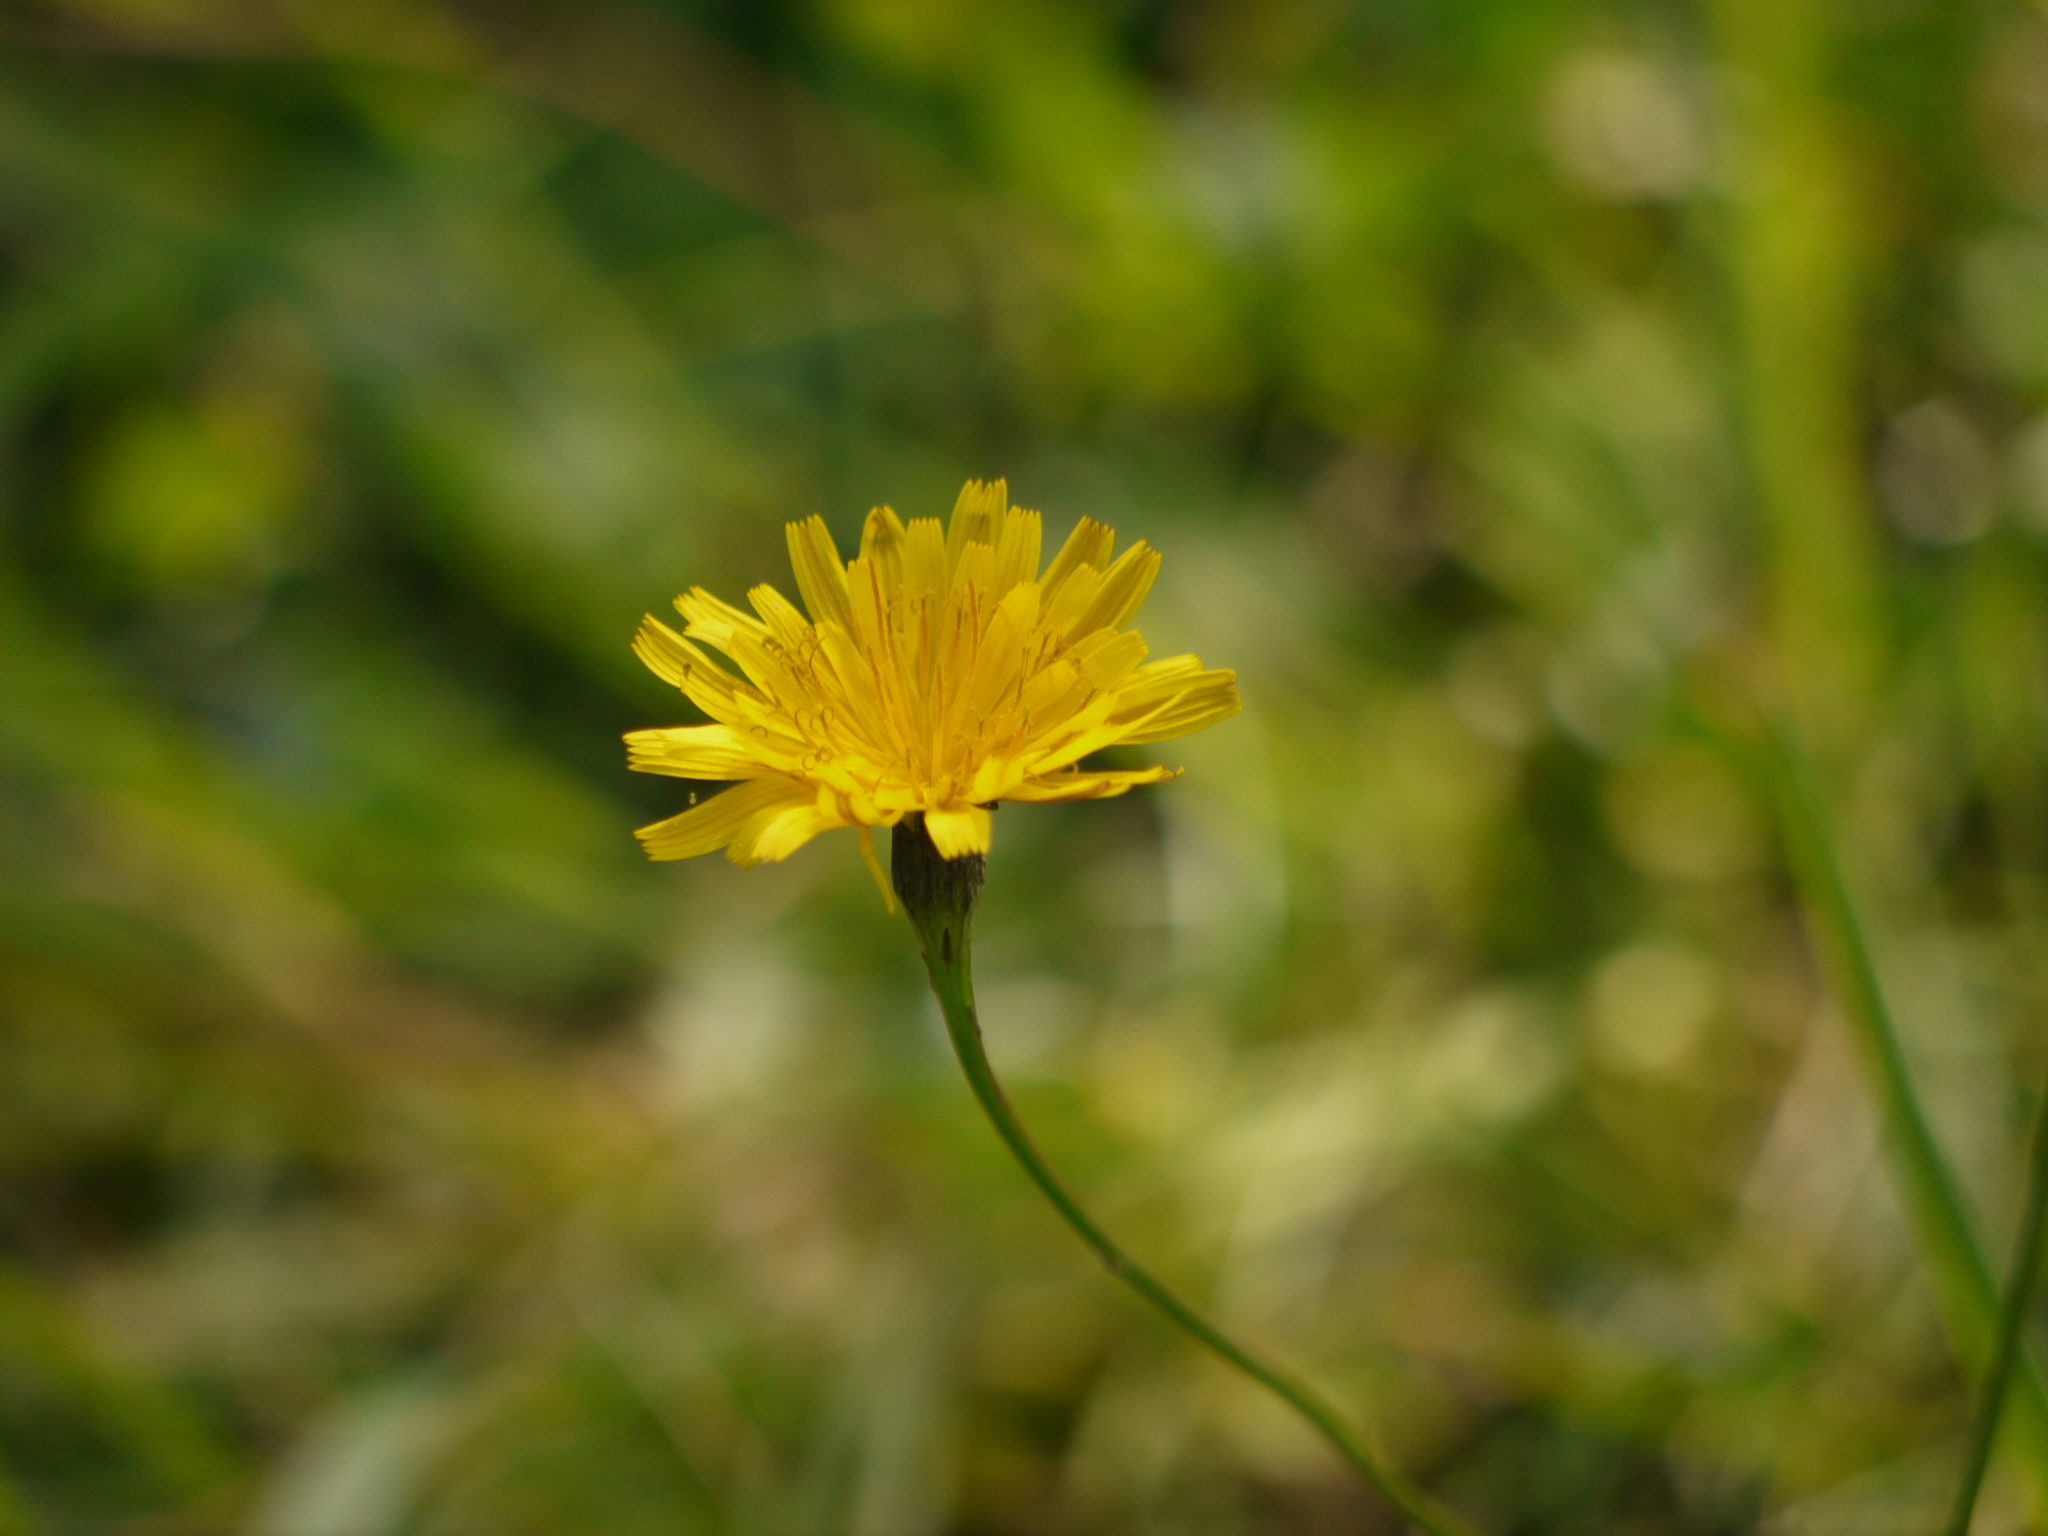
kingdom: Plantae
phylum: Tracheophyta
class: Magnoliopsida
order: Asterales
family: Asteraceae
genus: Taraxacum
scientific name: Taraxacum officinale
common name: Common dandelion
